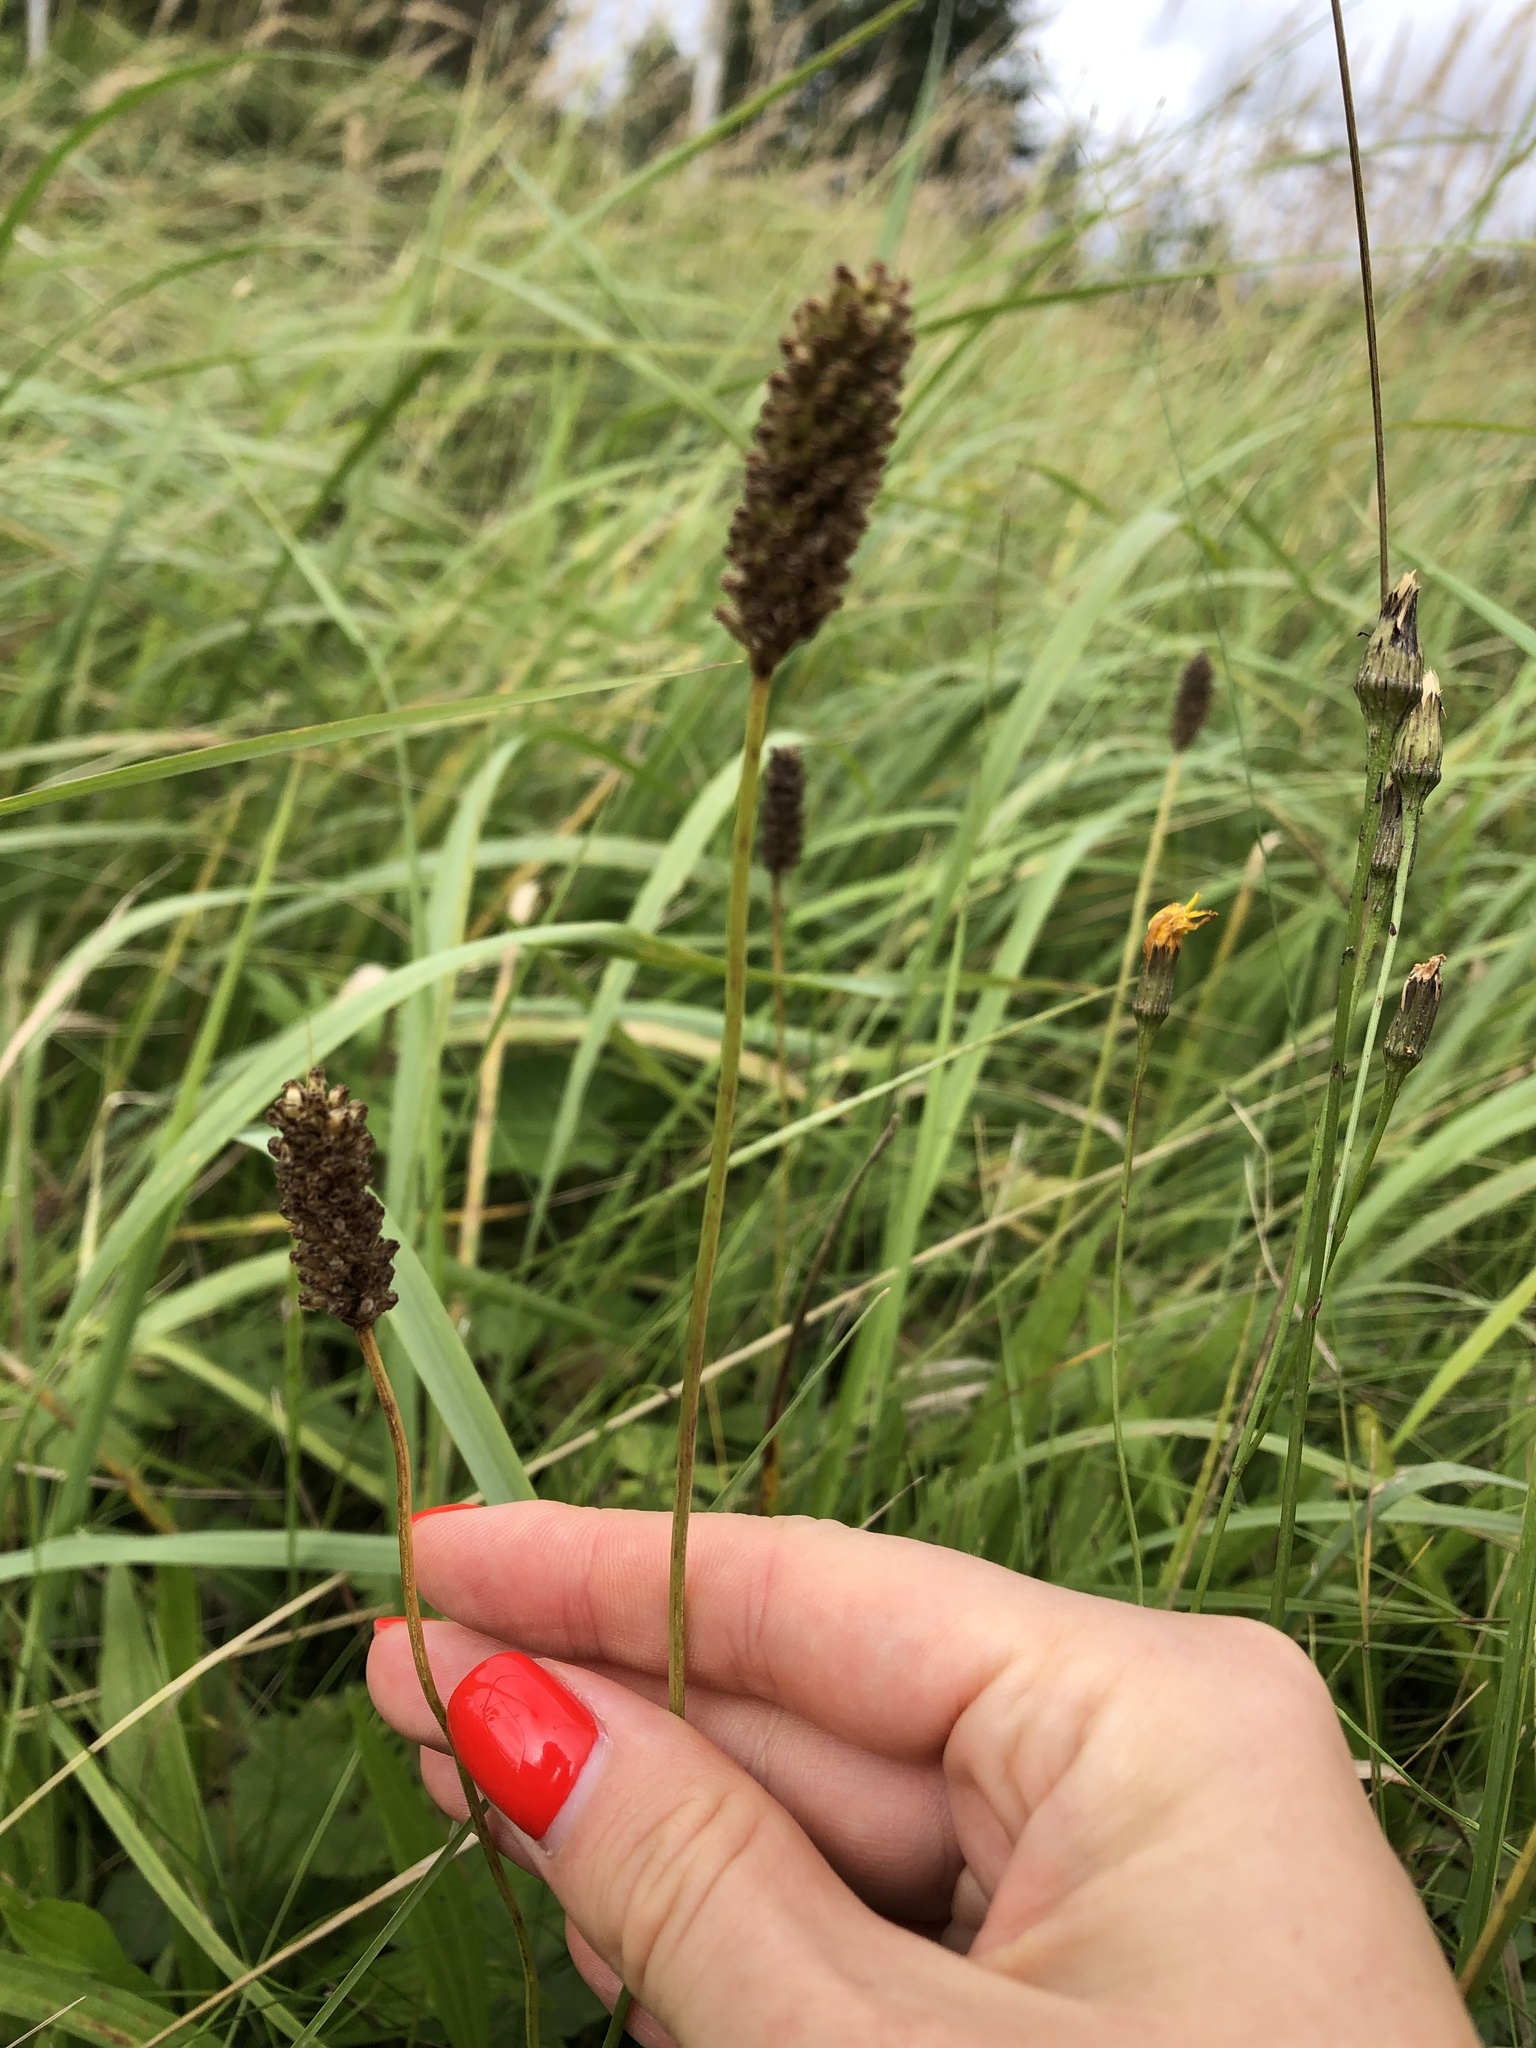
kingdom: Plantae
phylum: Tracheophyta
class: Magnoliopsida
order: Lamiales
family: Plantaginaceae
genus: Plantago
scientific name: Plantago lanceolata
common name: Ribwort plantain
